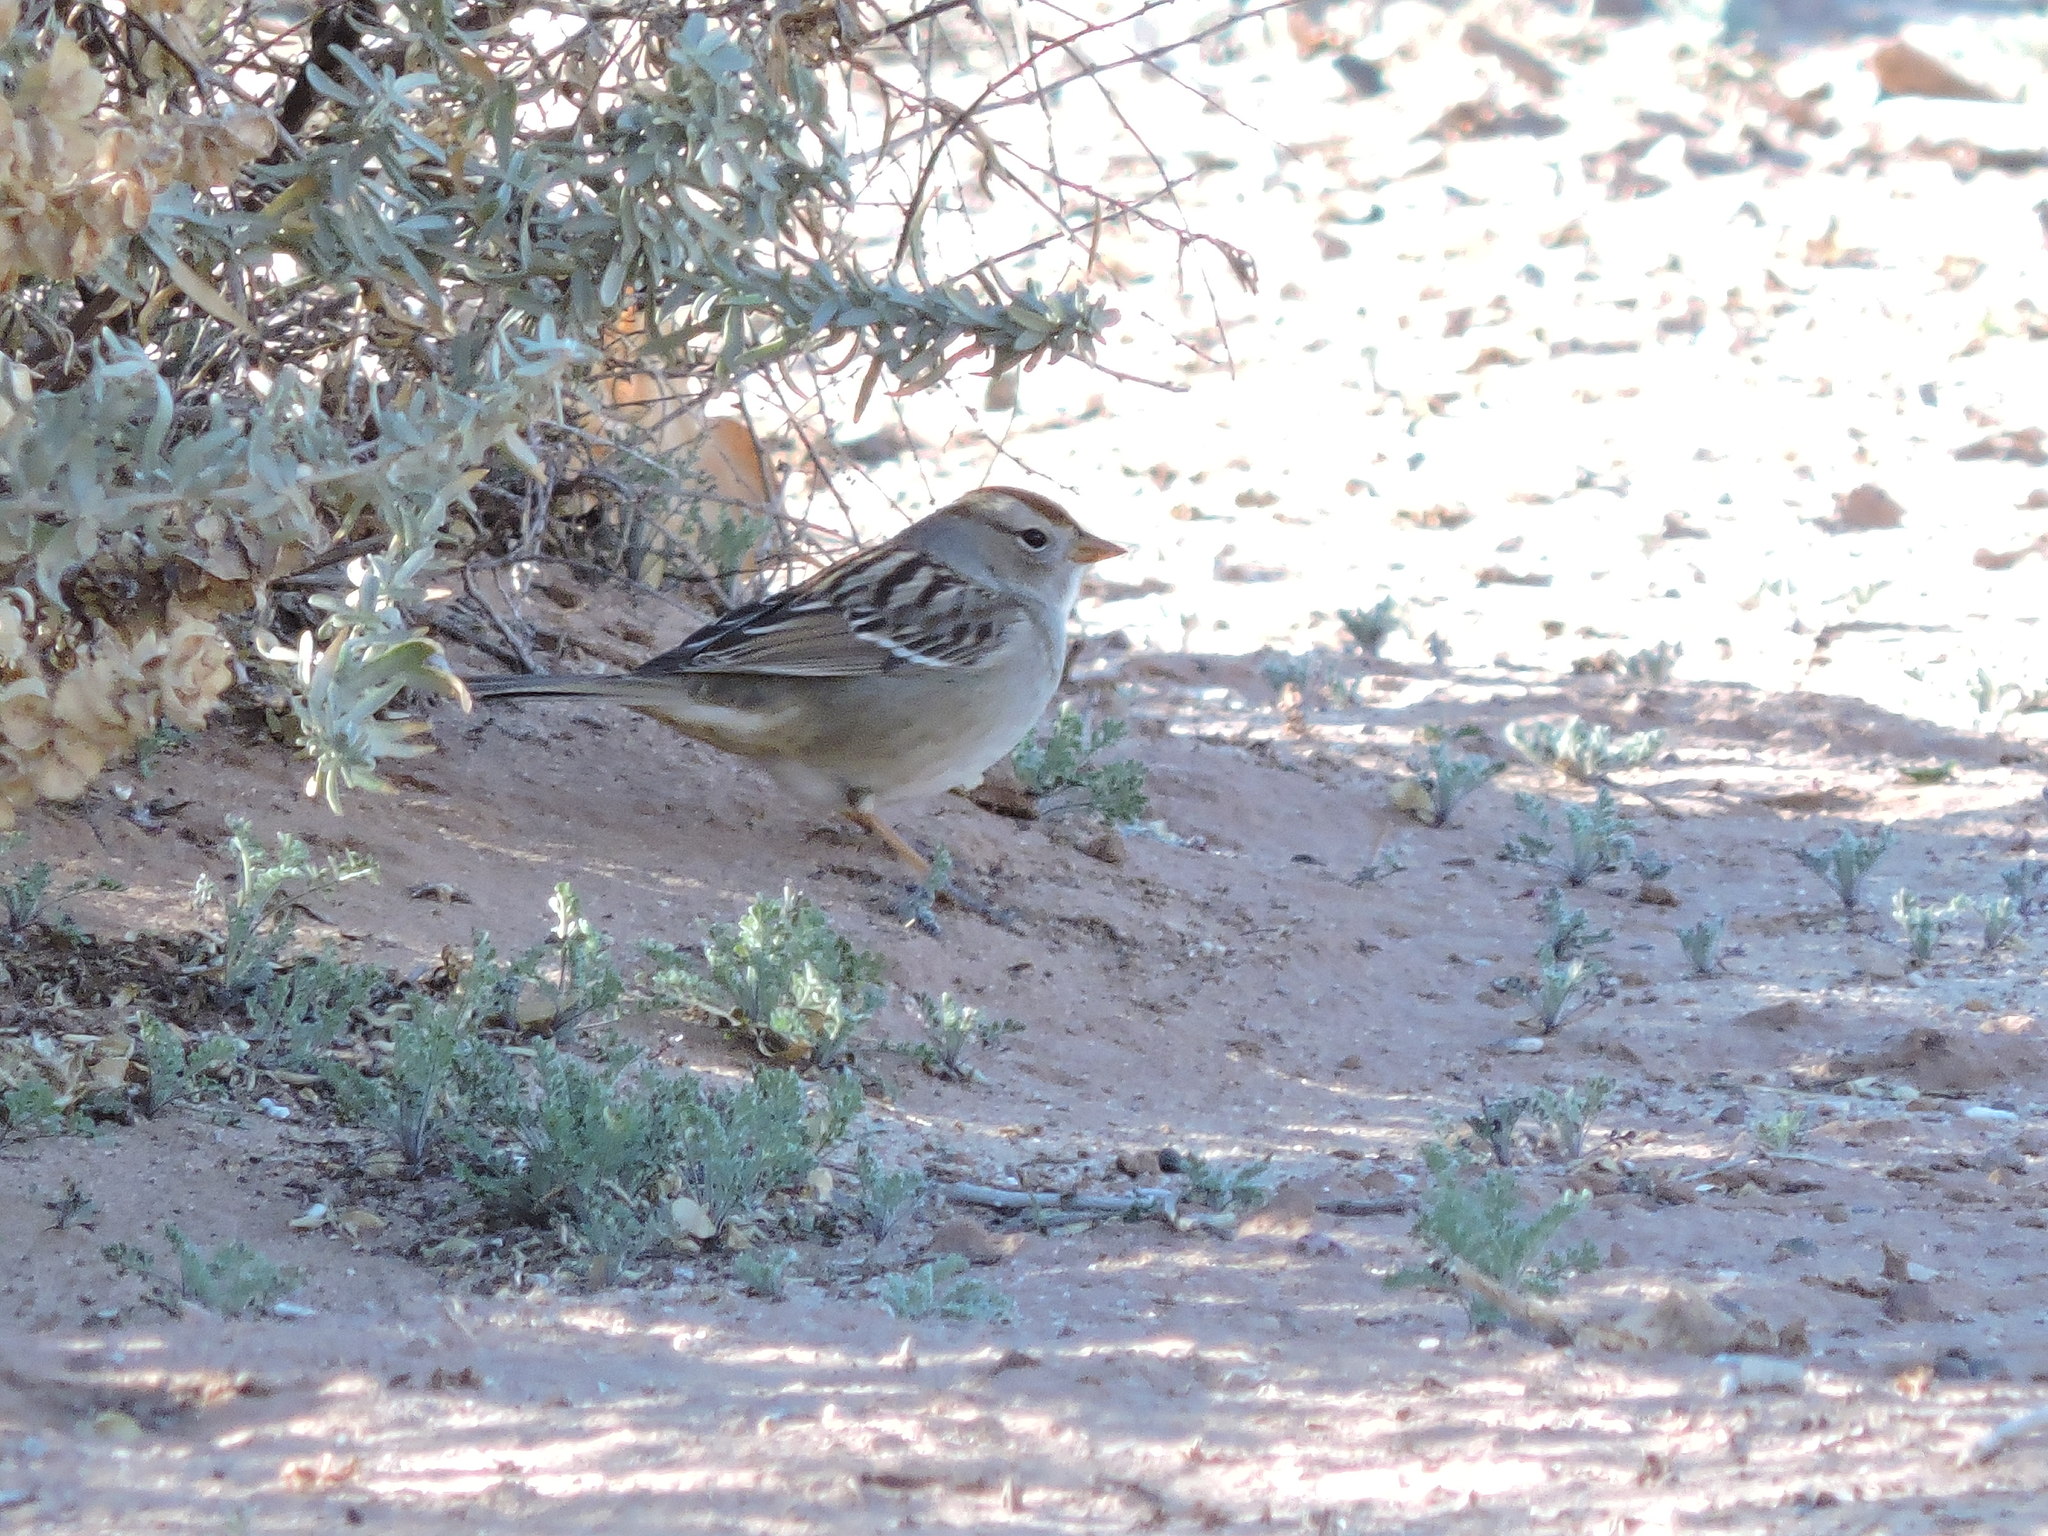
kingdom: Animalia
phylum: Chordata
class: Aves
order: Passeriformes
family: Passerellidae
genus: Zonotrichia
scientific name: Zonotrichia leucophrys
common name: White-crowned sparrow
